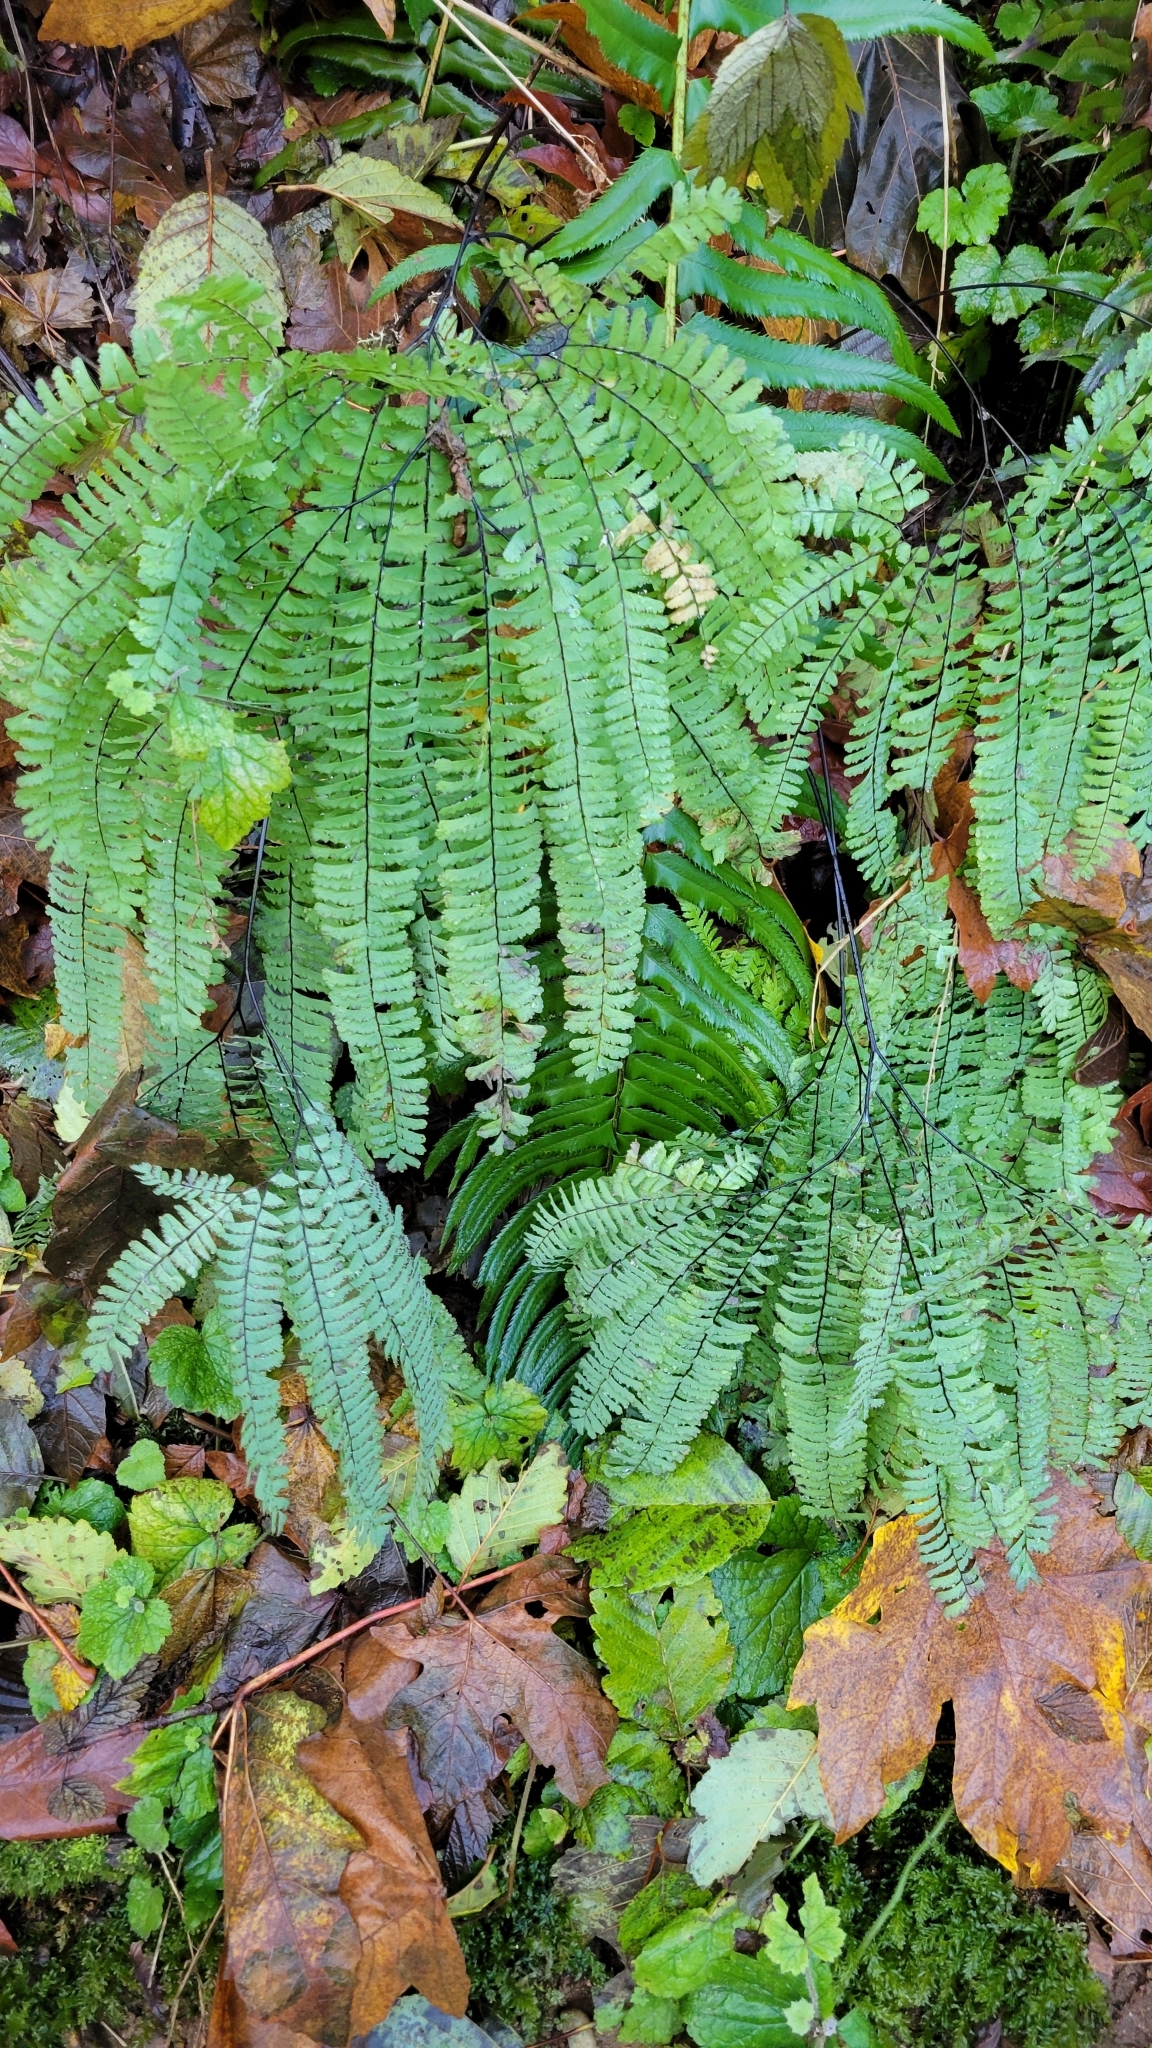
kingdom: Plantae
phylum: Tracheophyta
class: Polypodiopsida
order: Polypodiales
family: Pteridaceae
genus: Adiantum
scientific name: Adiantum aleuticum
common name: Aleutian maidenhair fern
